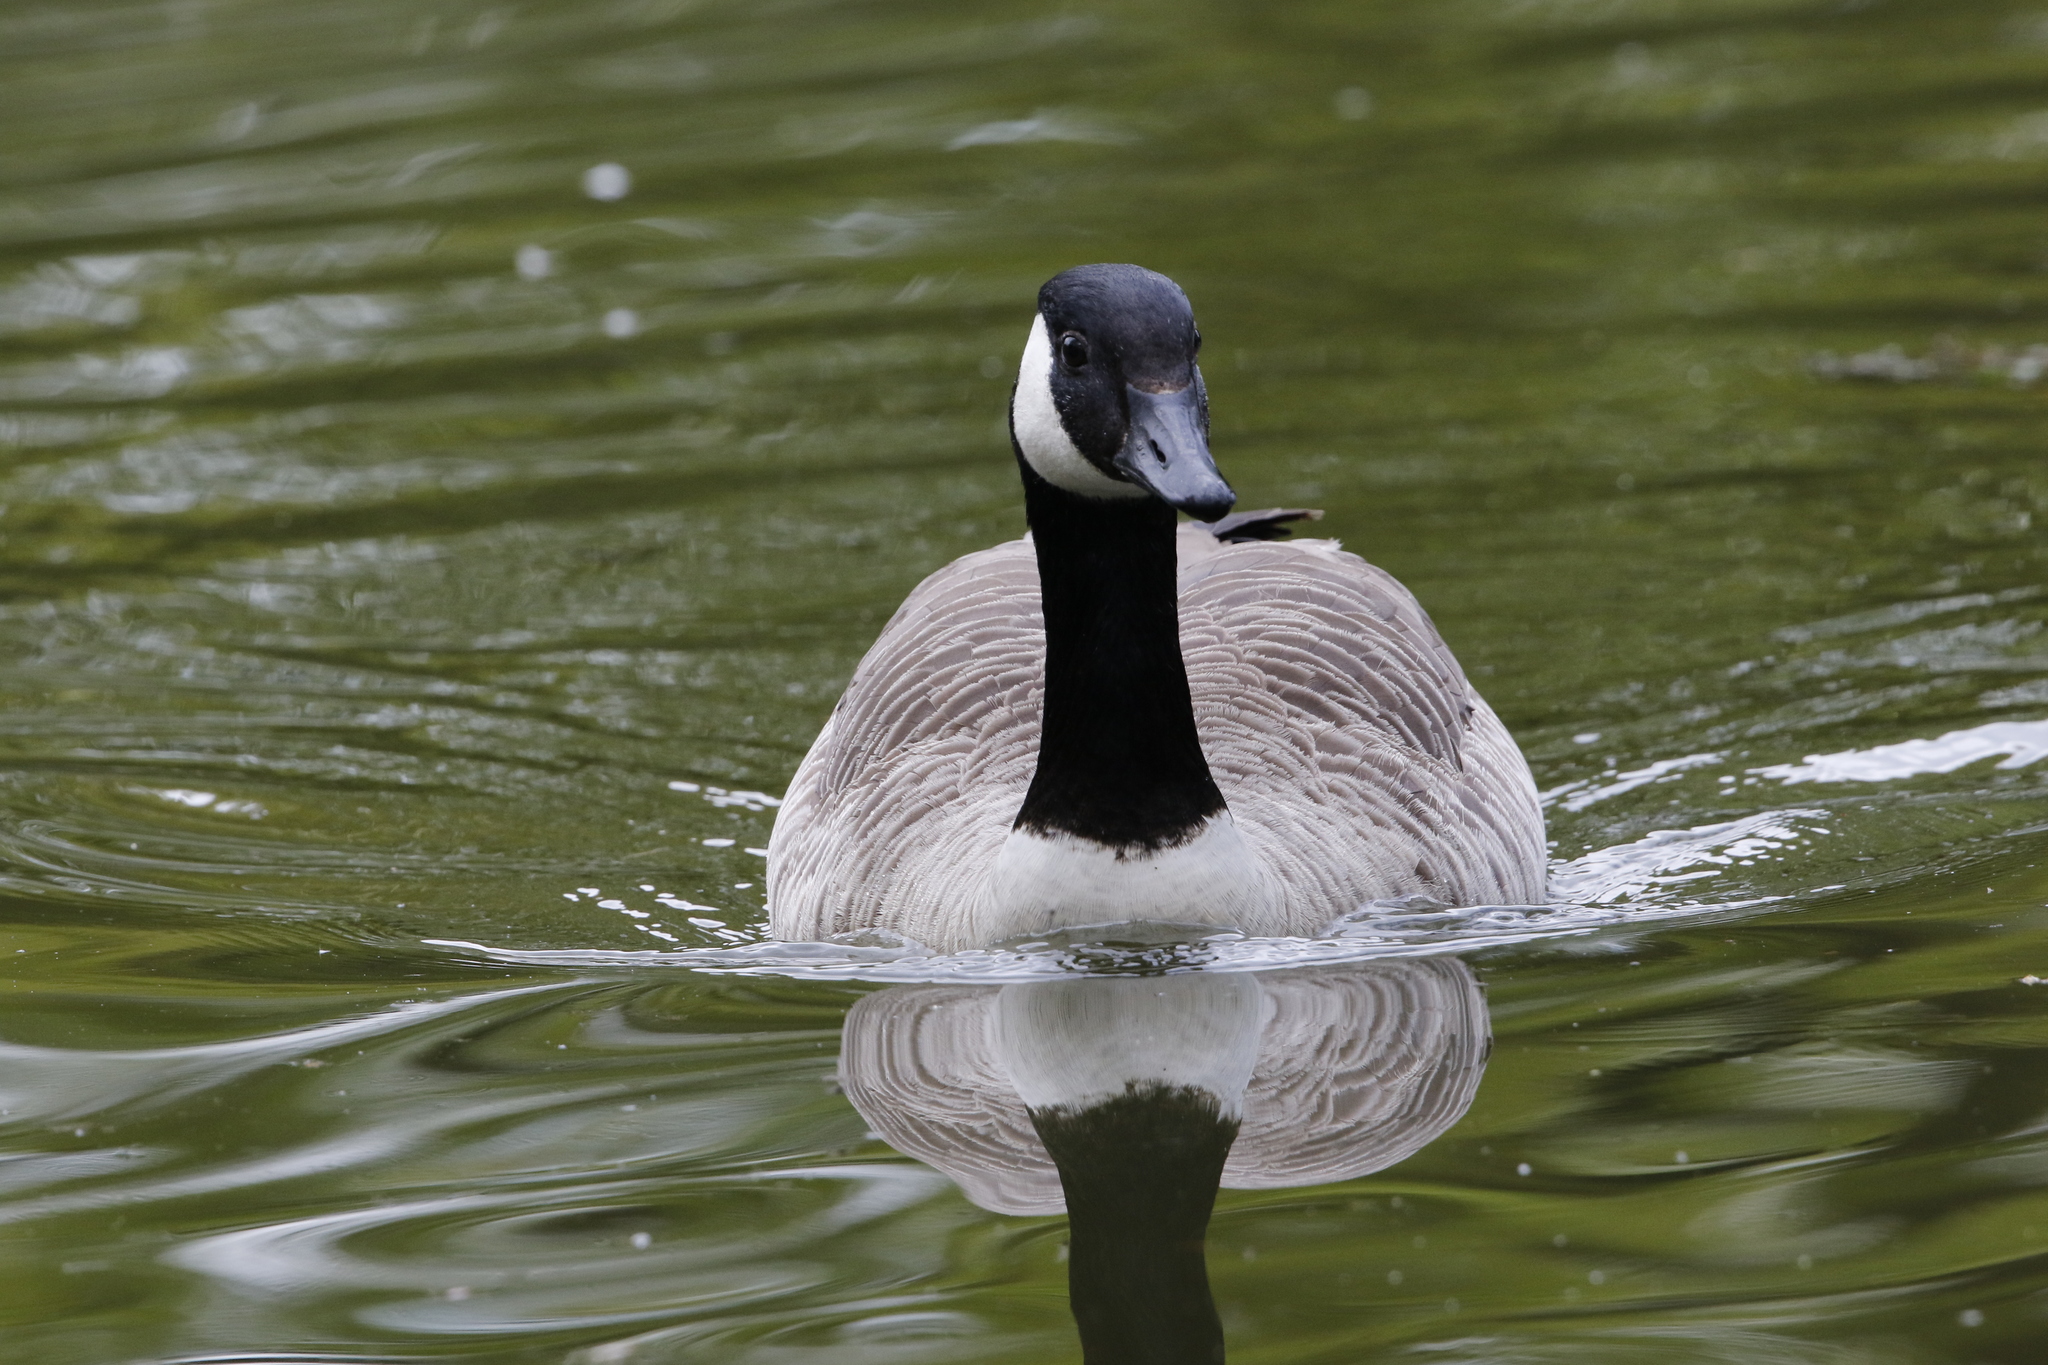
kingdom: Animalia
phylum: Chordata
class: Aves
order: Anseriformes
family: Anatidae
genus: Branta
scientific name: Branta canadensis
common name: Canada goose
